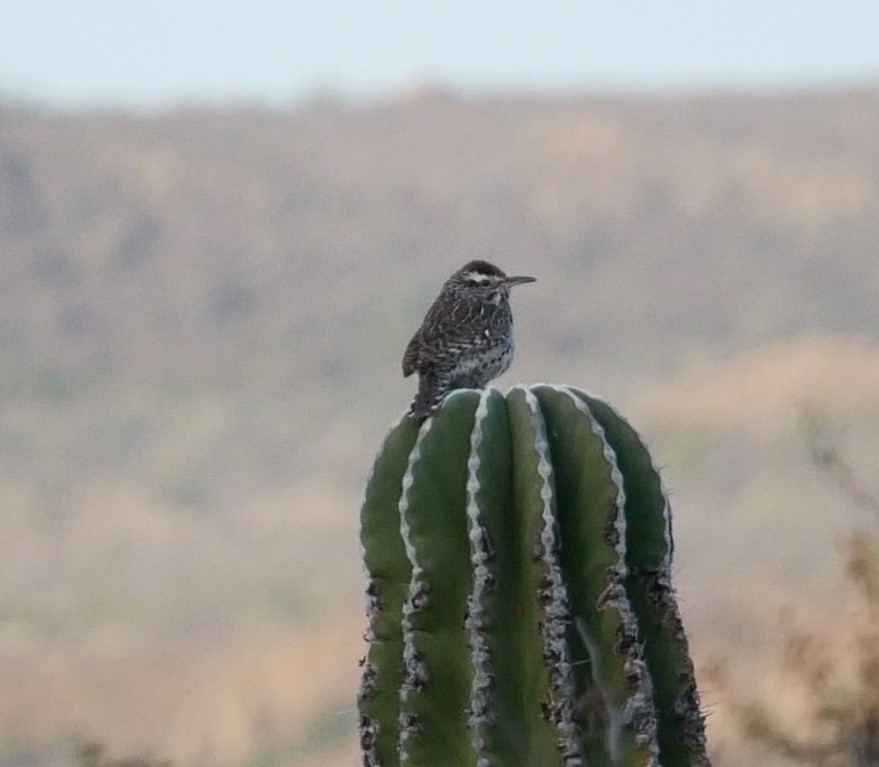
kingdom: Animalia
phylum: Chordata
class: Aves
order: Passeriformes
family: Troglodytidae
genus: Campylorhynchus
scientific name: Campylorhynchus brunneicapillus
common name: Cactus wren
